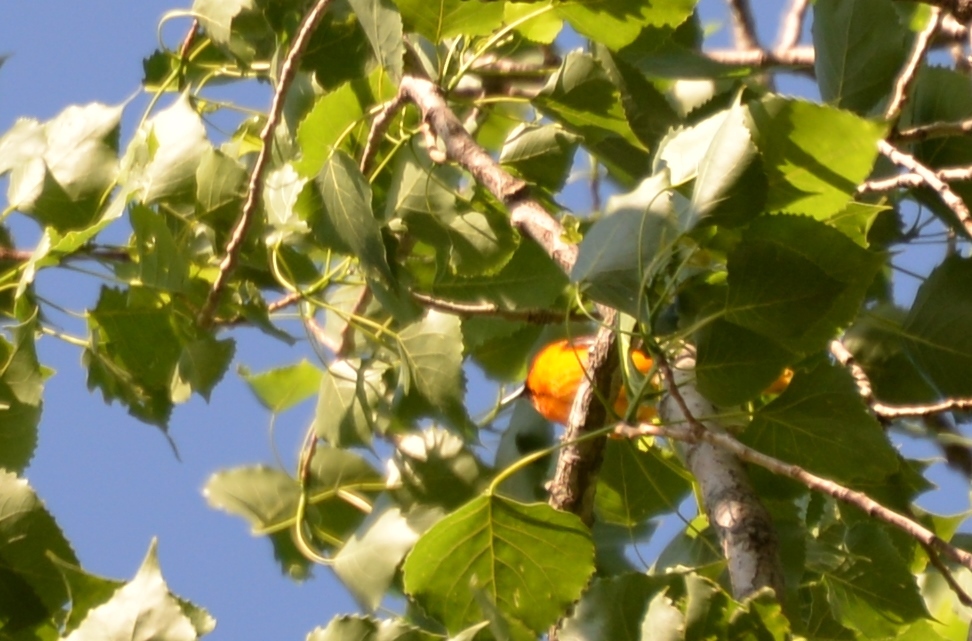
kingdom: Animalia
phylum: Chordata
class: Aves
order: Passeriformes
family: Icteridae
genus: Icterus
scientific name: Icterus galbula
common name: Baltimore oriole
